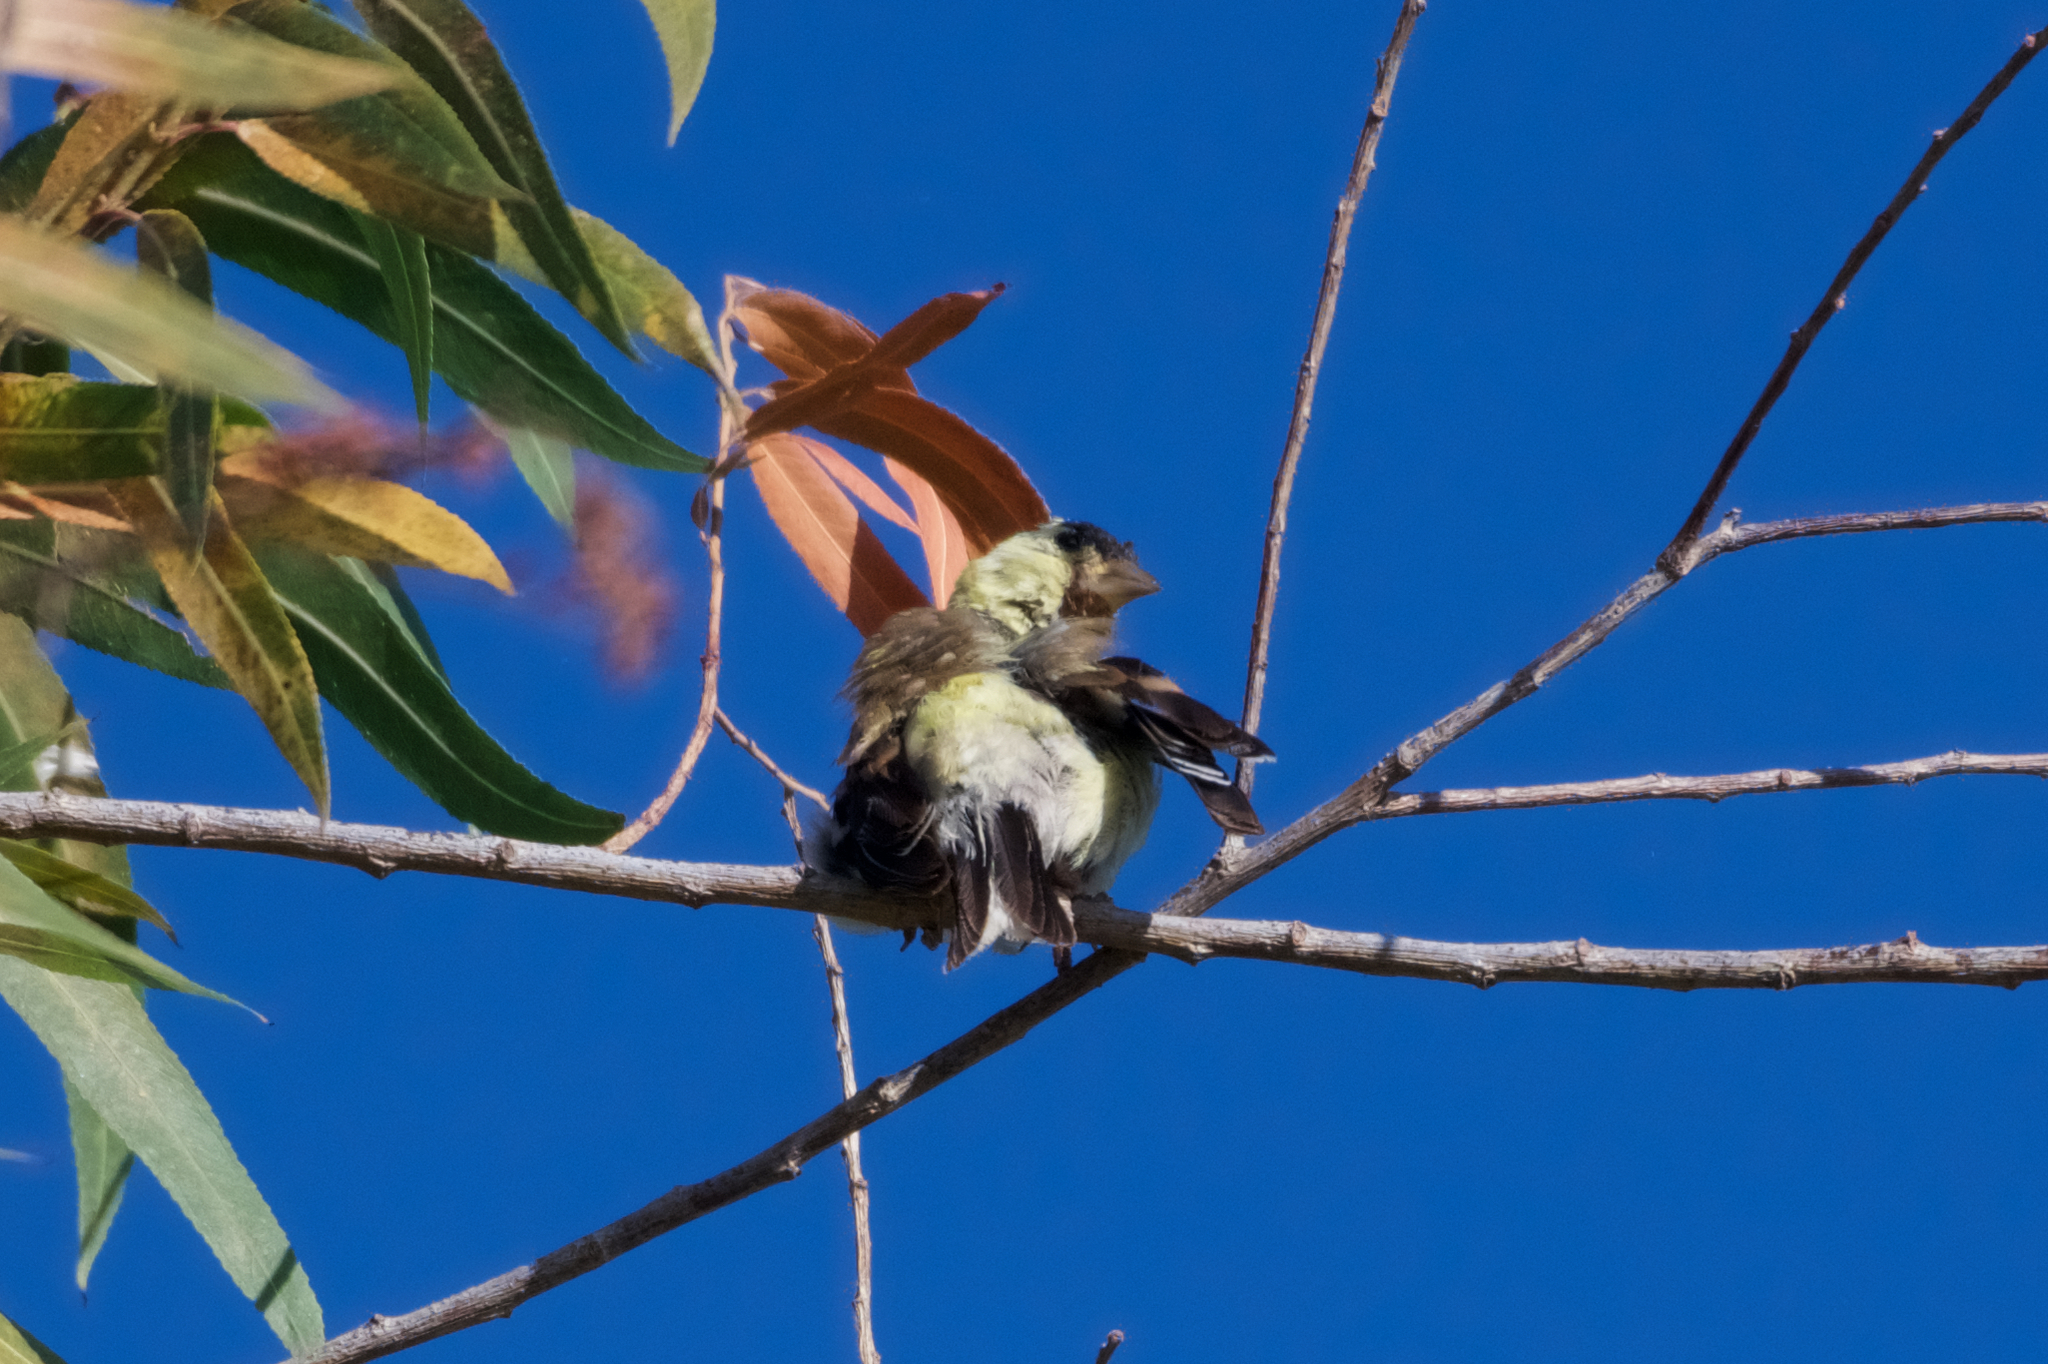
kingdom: Animalia
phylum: Chordata
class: Aves
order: Passeriformes
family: Fringillidae
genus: Spinus
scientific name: Spinus tristis
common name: American goldfinch
